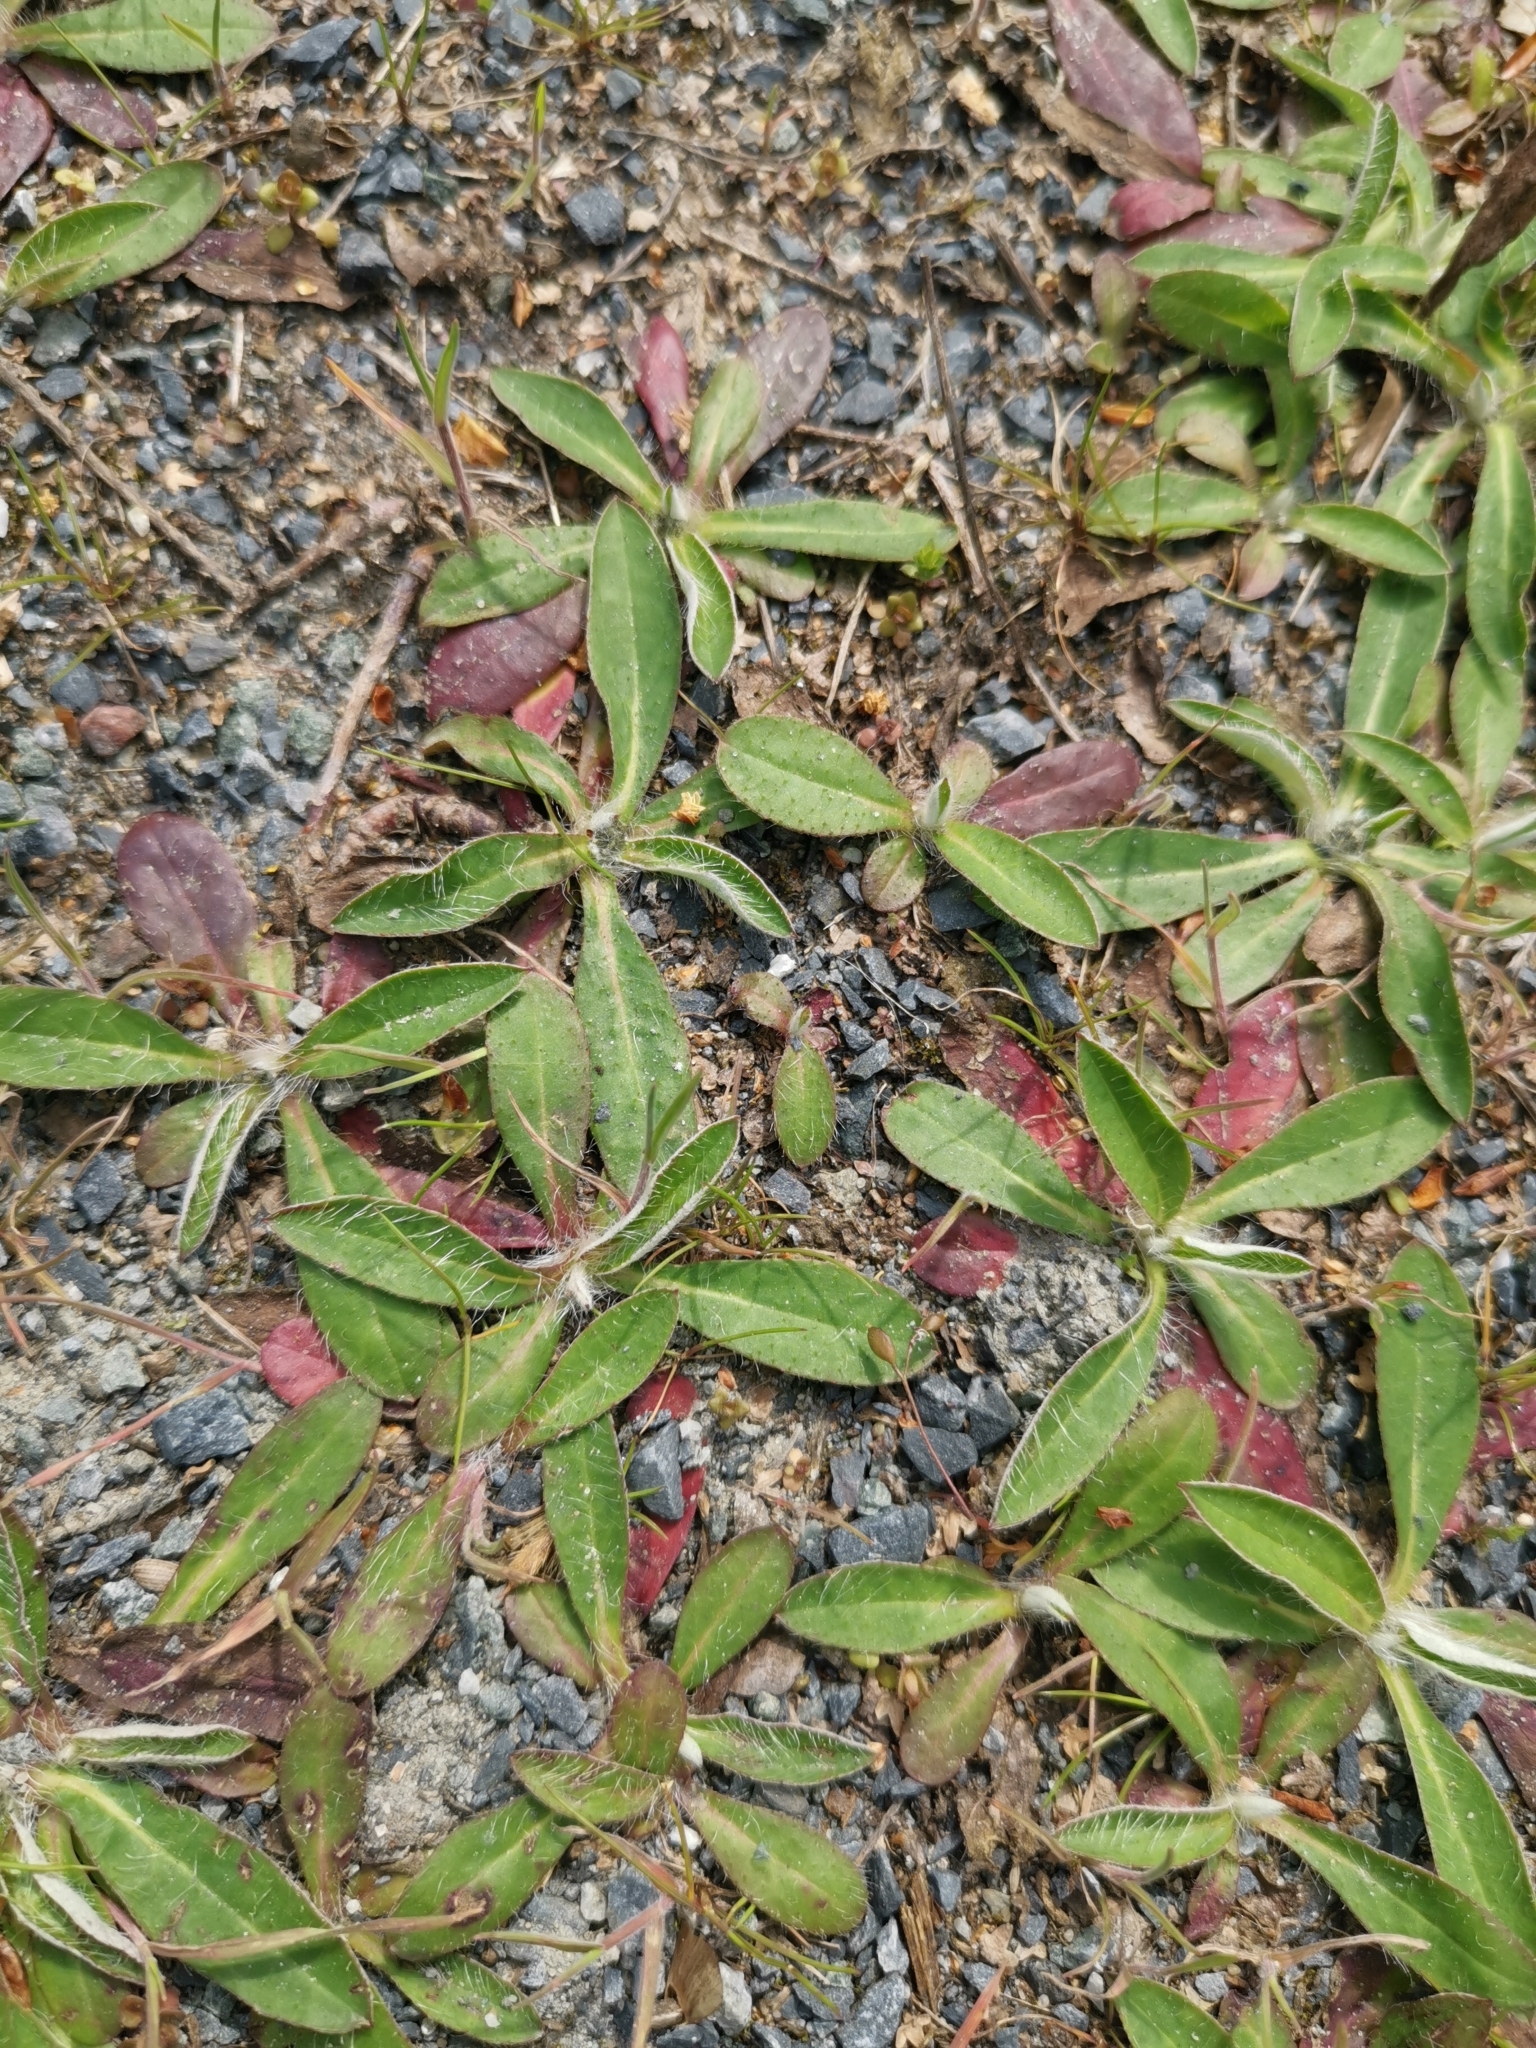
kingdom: Plantae
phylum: Tracheophyta
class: Magnoliopsida
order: Asterales
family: Asteraceae
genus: Pilosella
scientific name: Pilosella officinarum
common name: Mouse-ear hawkweed
